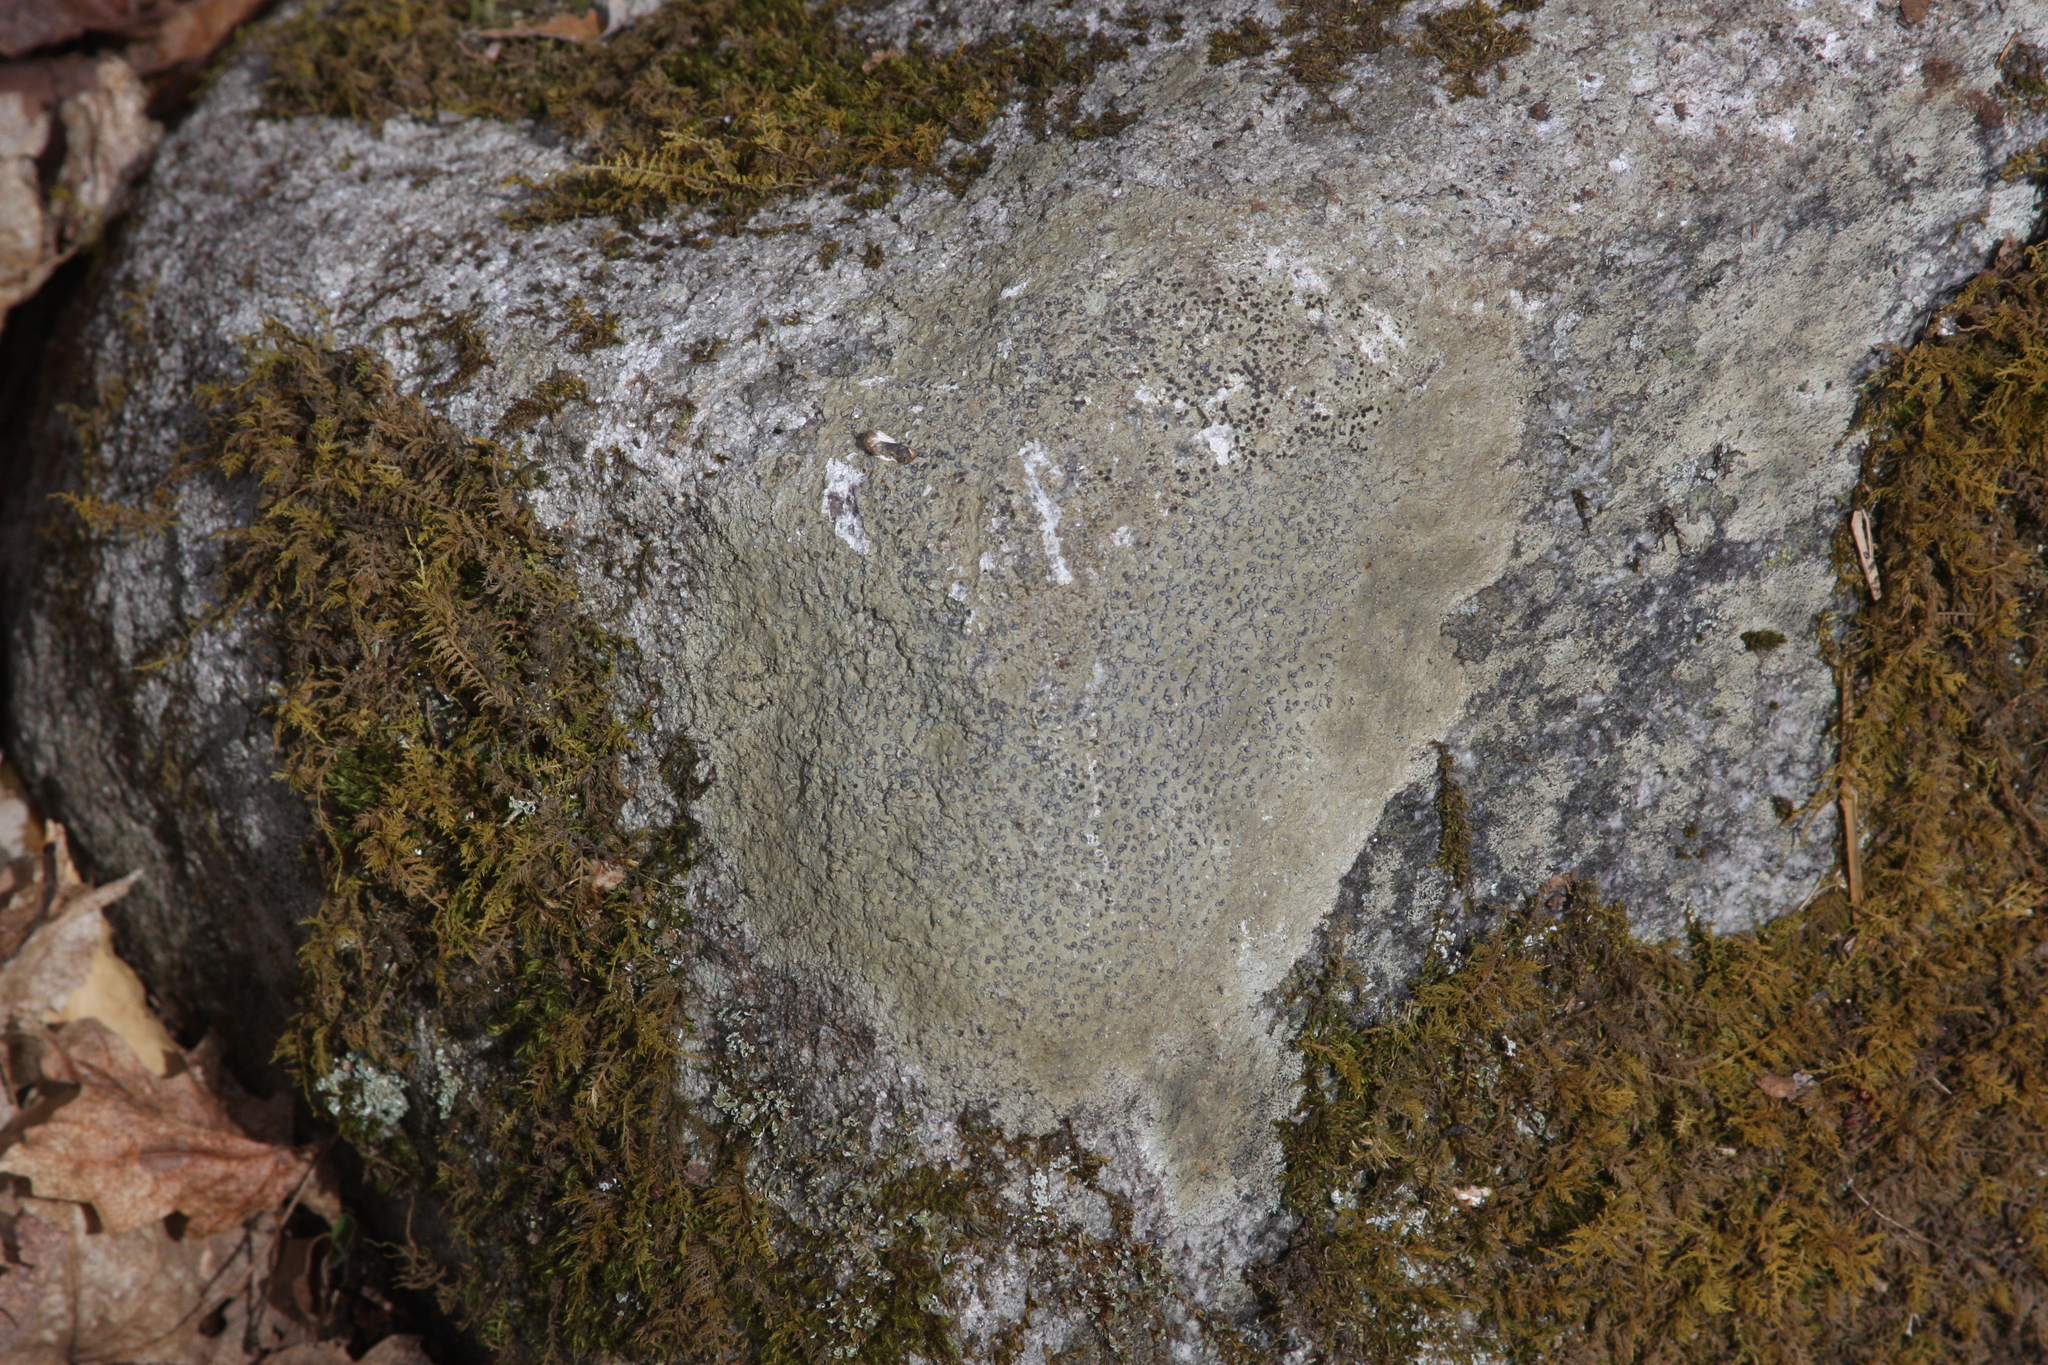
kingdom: Fungi
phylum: Ascomycota
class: Lecanoromycetes
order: Lecideales
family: Lecideaceae
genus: Porpidia
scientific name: Porpidia albocaerulescens
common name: Smokey-eyed boulder lichen
